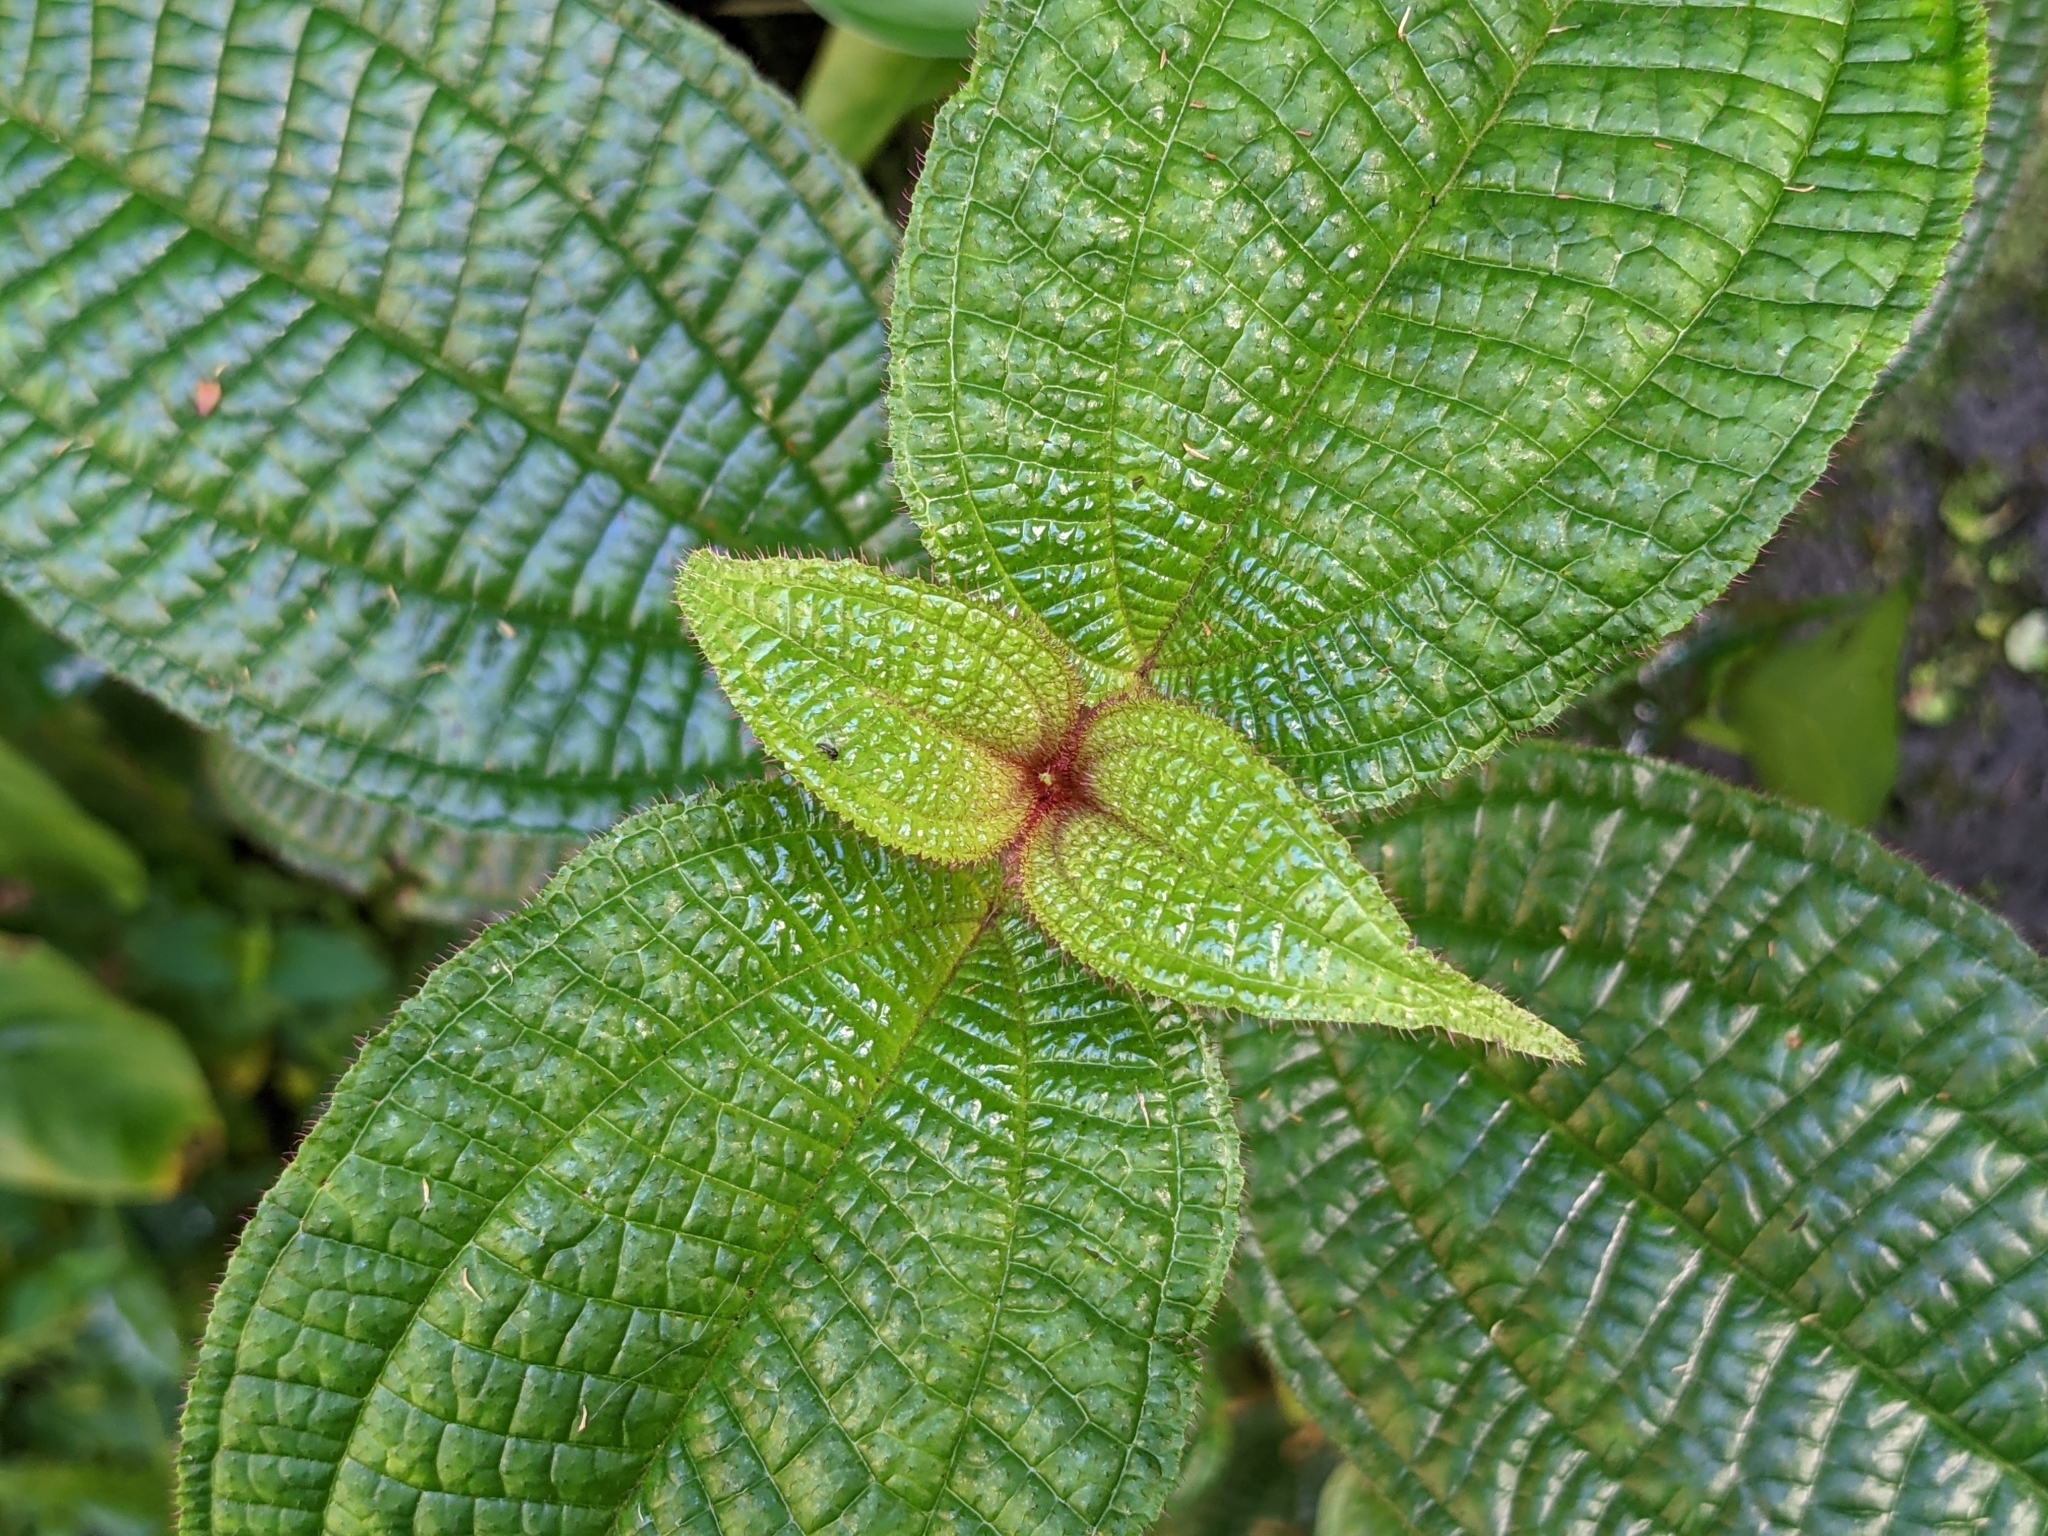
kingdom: Plantae
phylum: Tracheophyta
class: Magnoliopsida
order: Myrtales
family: Melastomataceae
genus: Miconia
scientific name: Miconia crenata
